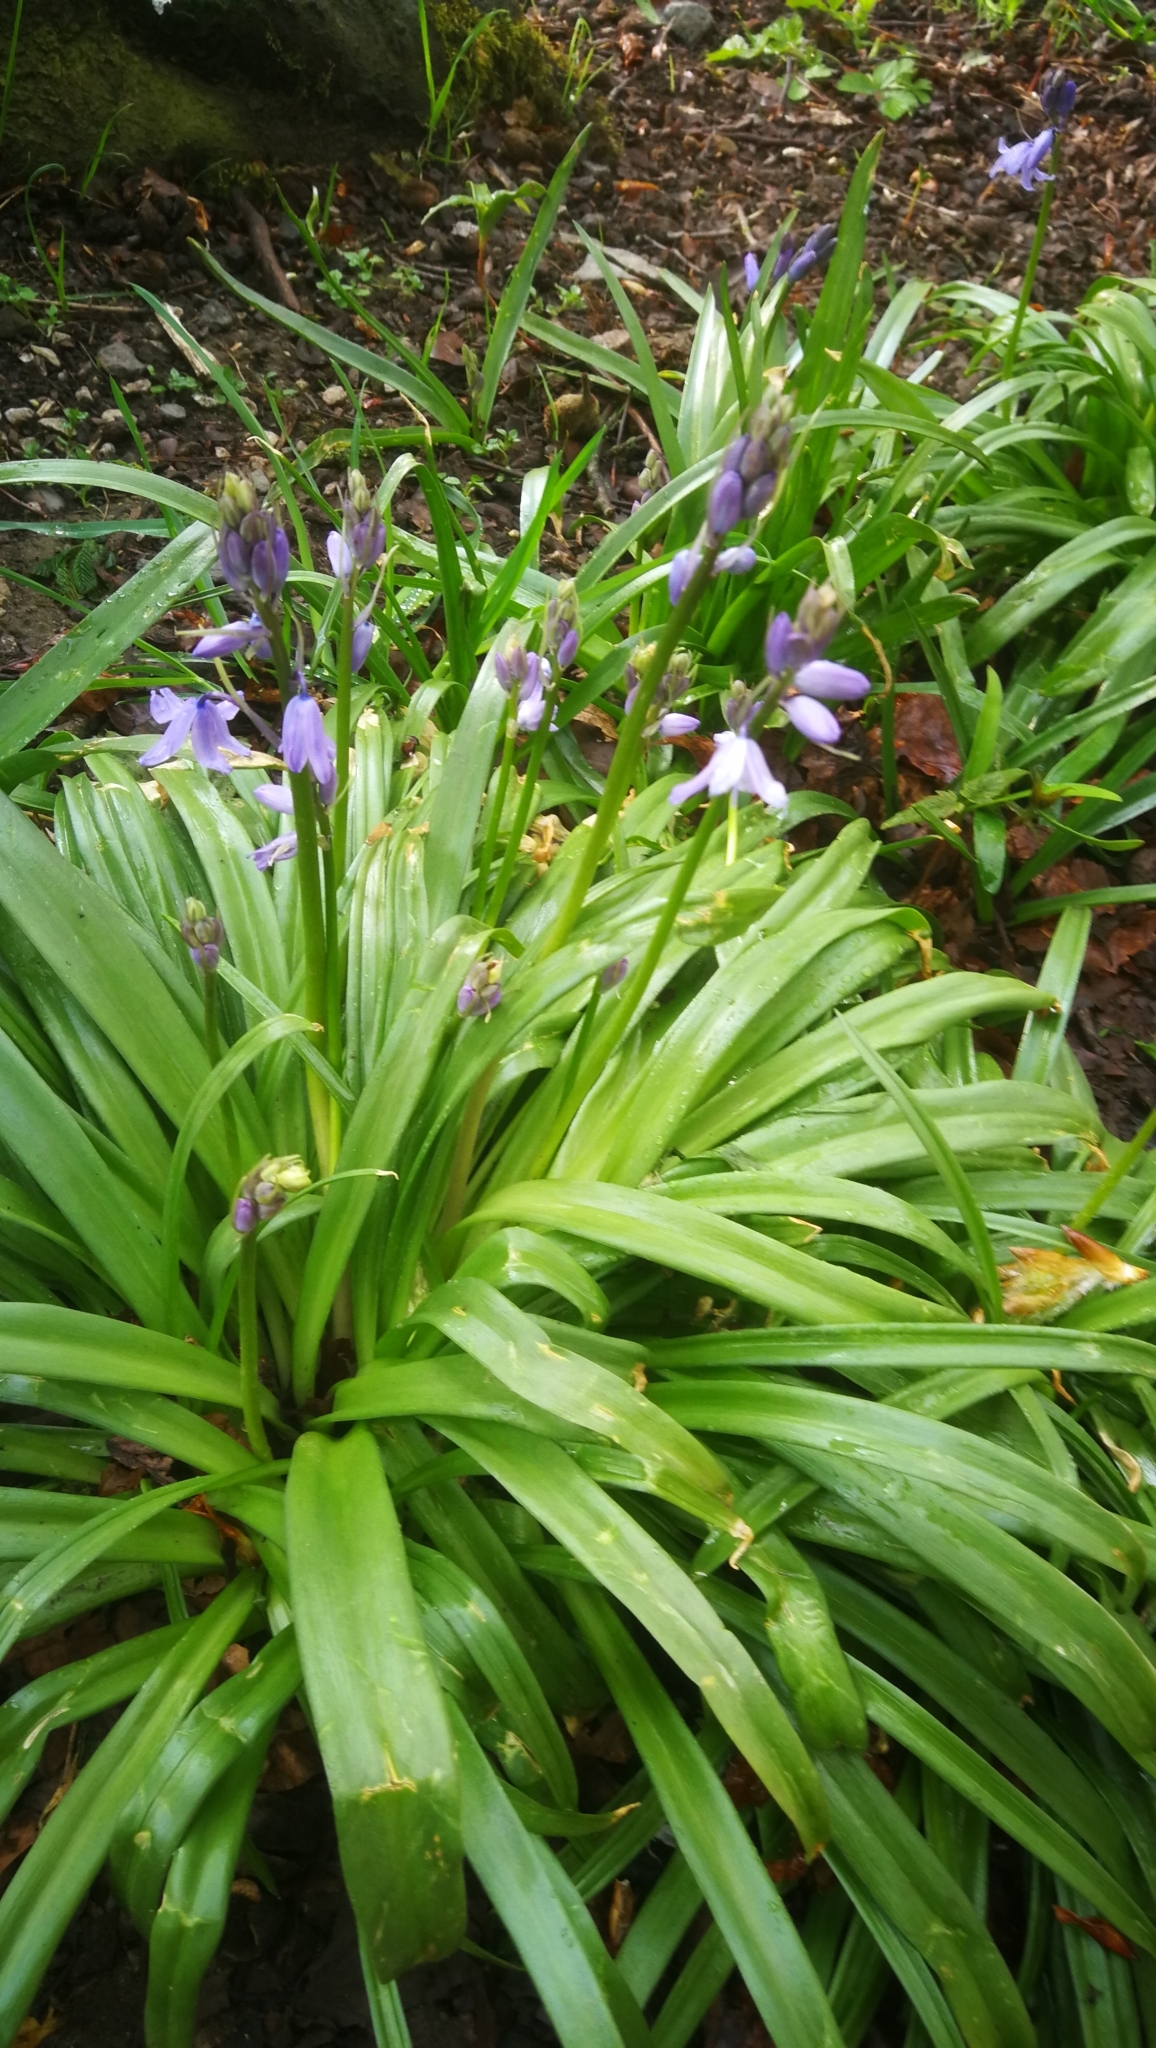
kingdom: Plantae
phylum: Tracheophyta
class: Liliopsida
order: Asparagales
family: Asparagaceae
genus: Hyacinthoides
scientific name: Hyacinthoides hispanica
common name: Spanish bluebell
